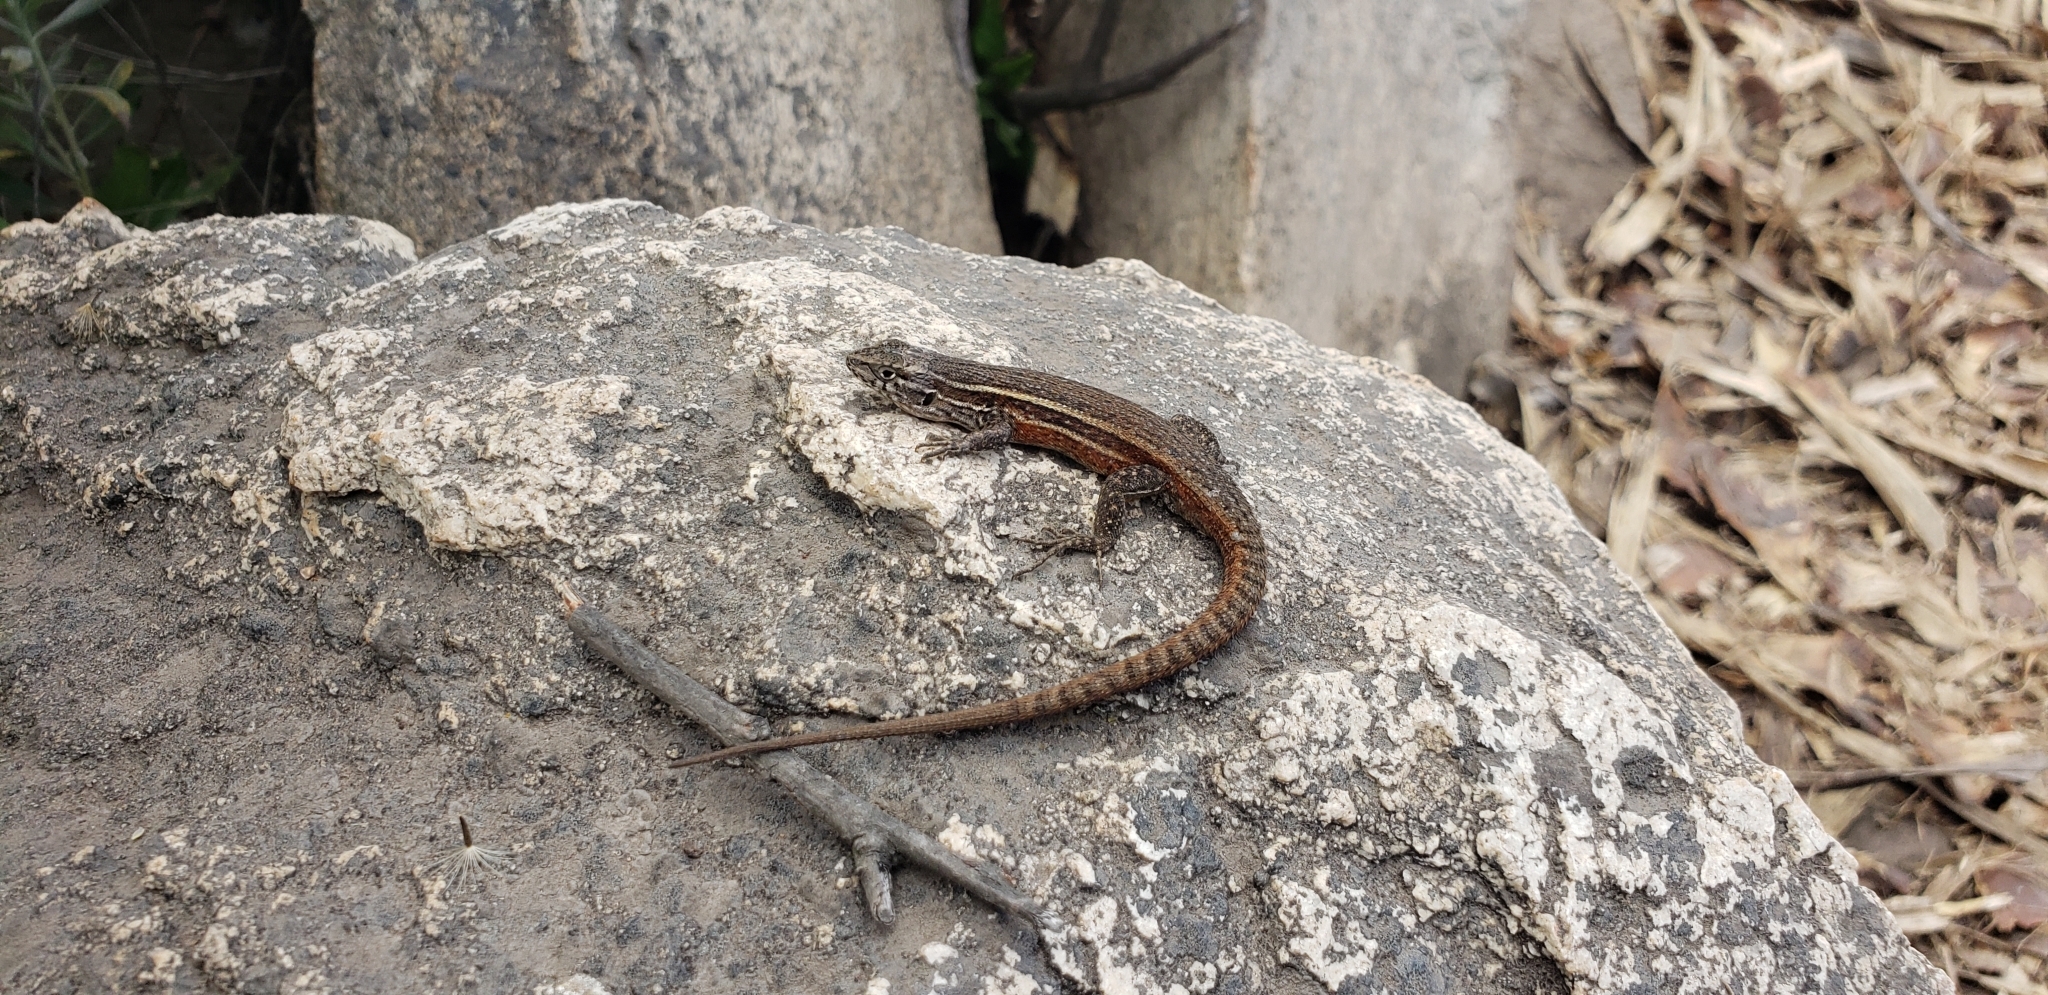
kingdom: Animalia
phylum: Chordata
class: Squamata
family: Liolaemidae
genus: Liolaemus
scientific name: Liolaemus fuscus
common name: Brown tree iguana
